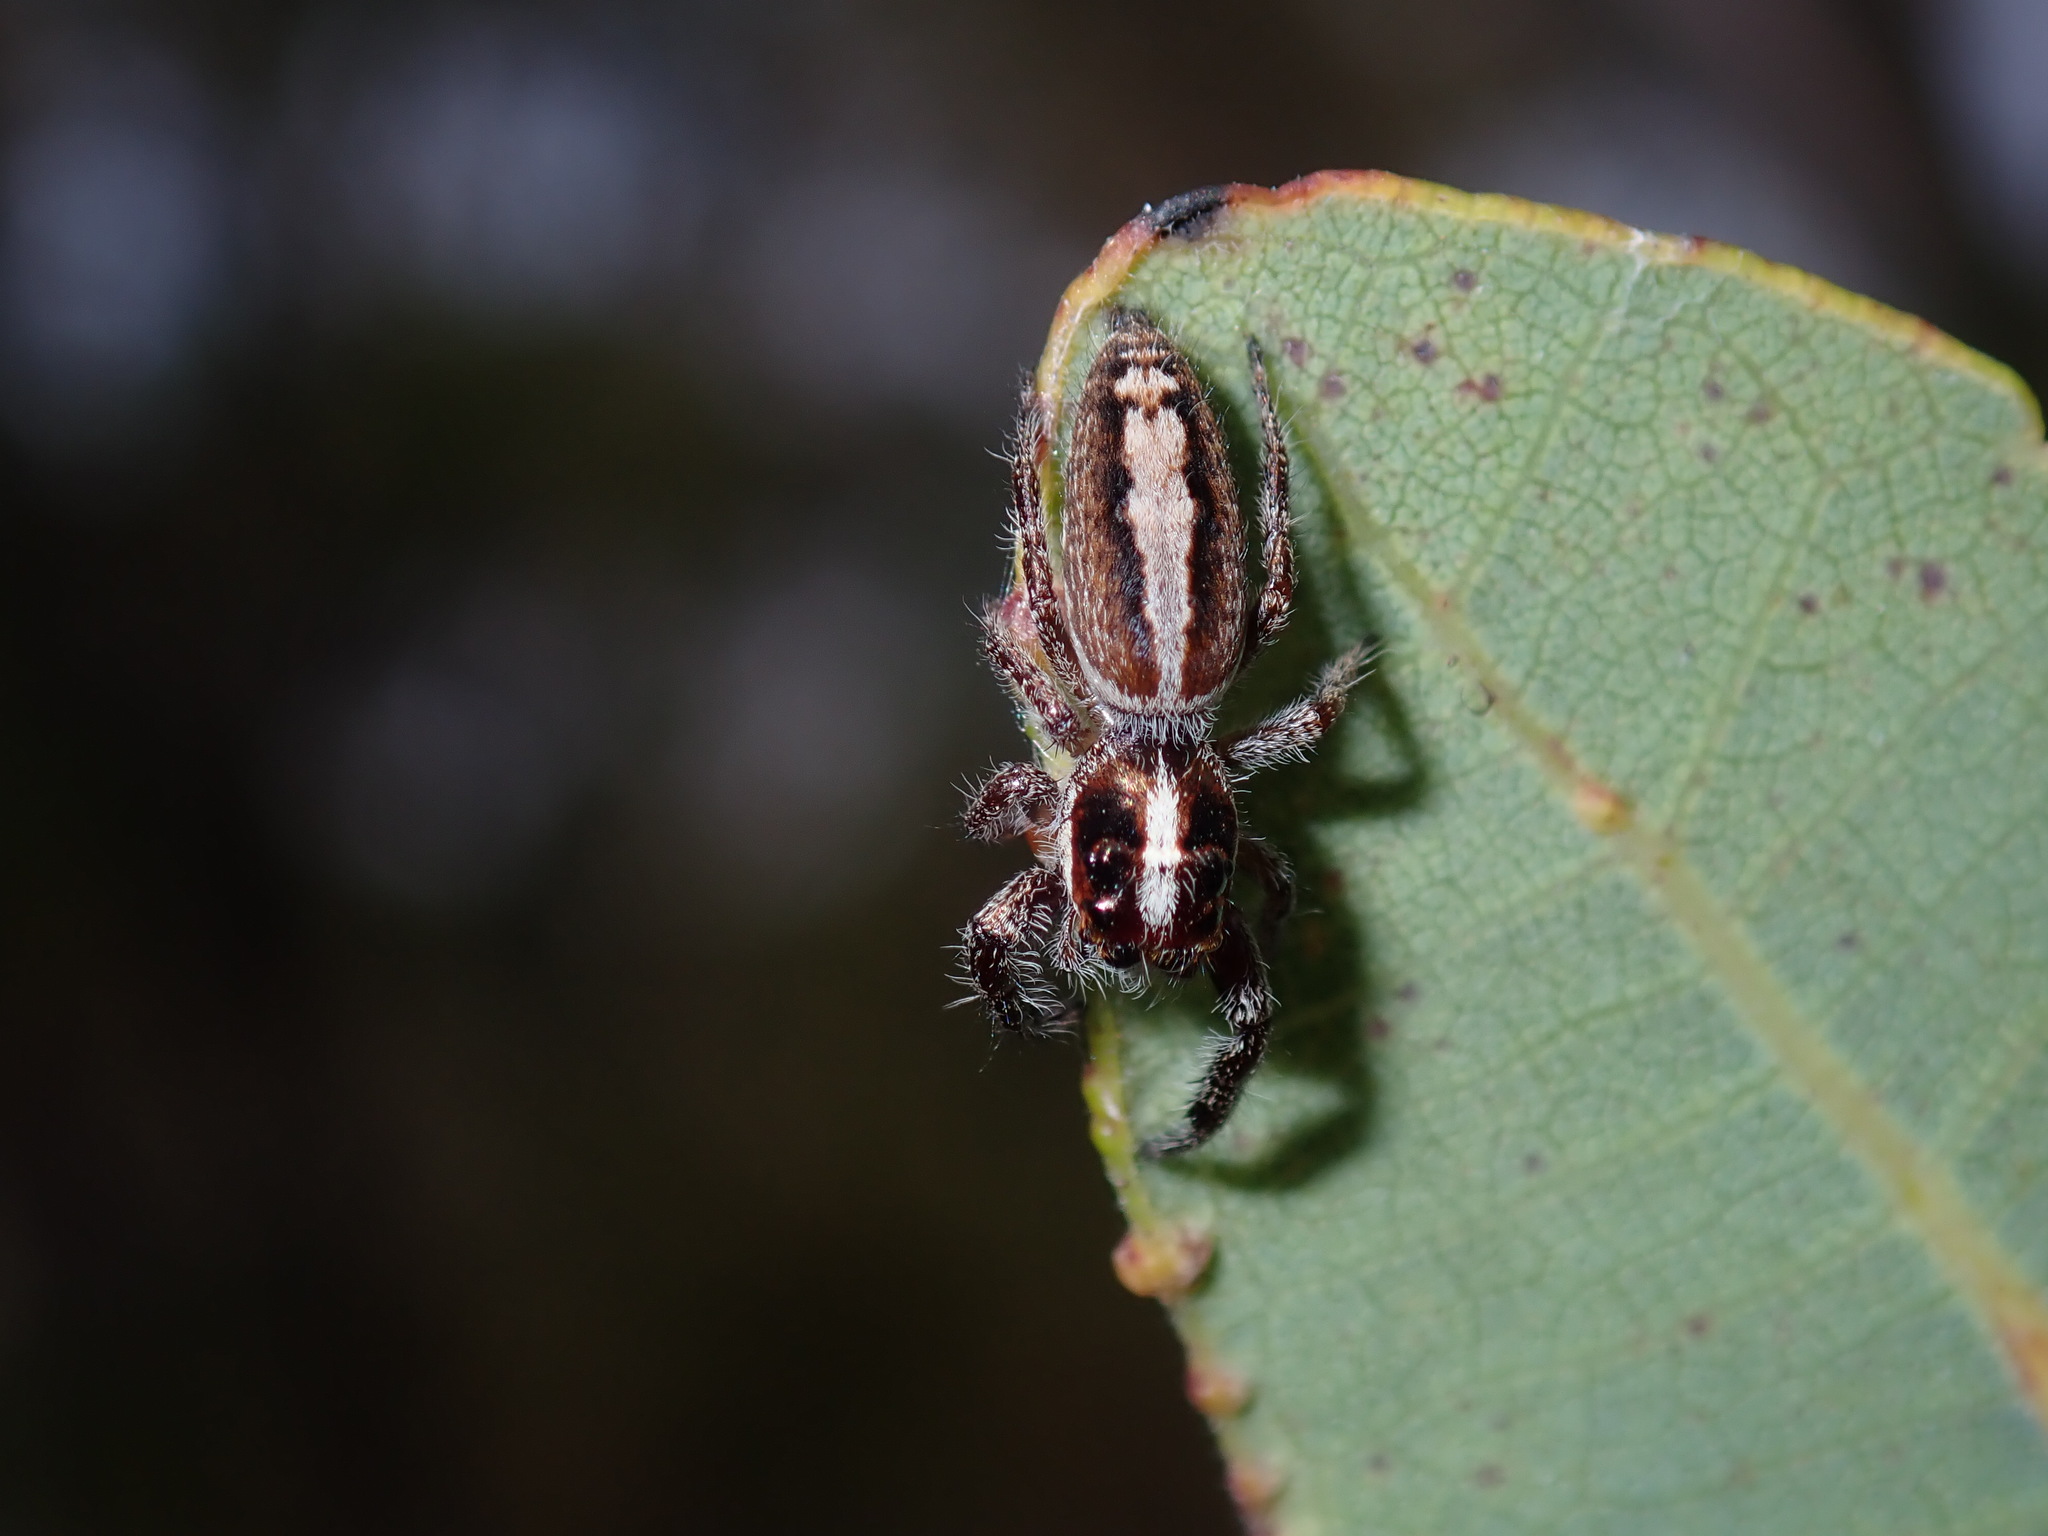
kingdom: Animalia
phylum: Arthropoda
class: Arachnida
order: Araneae
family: Salticidae
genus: Sandalodes
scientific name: Sandalodes bipenicillatus
